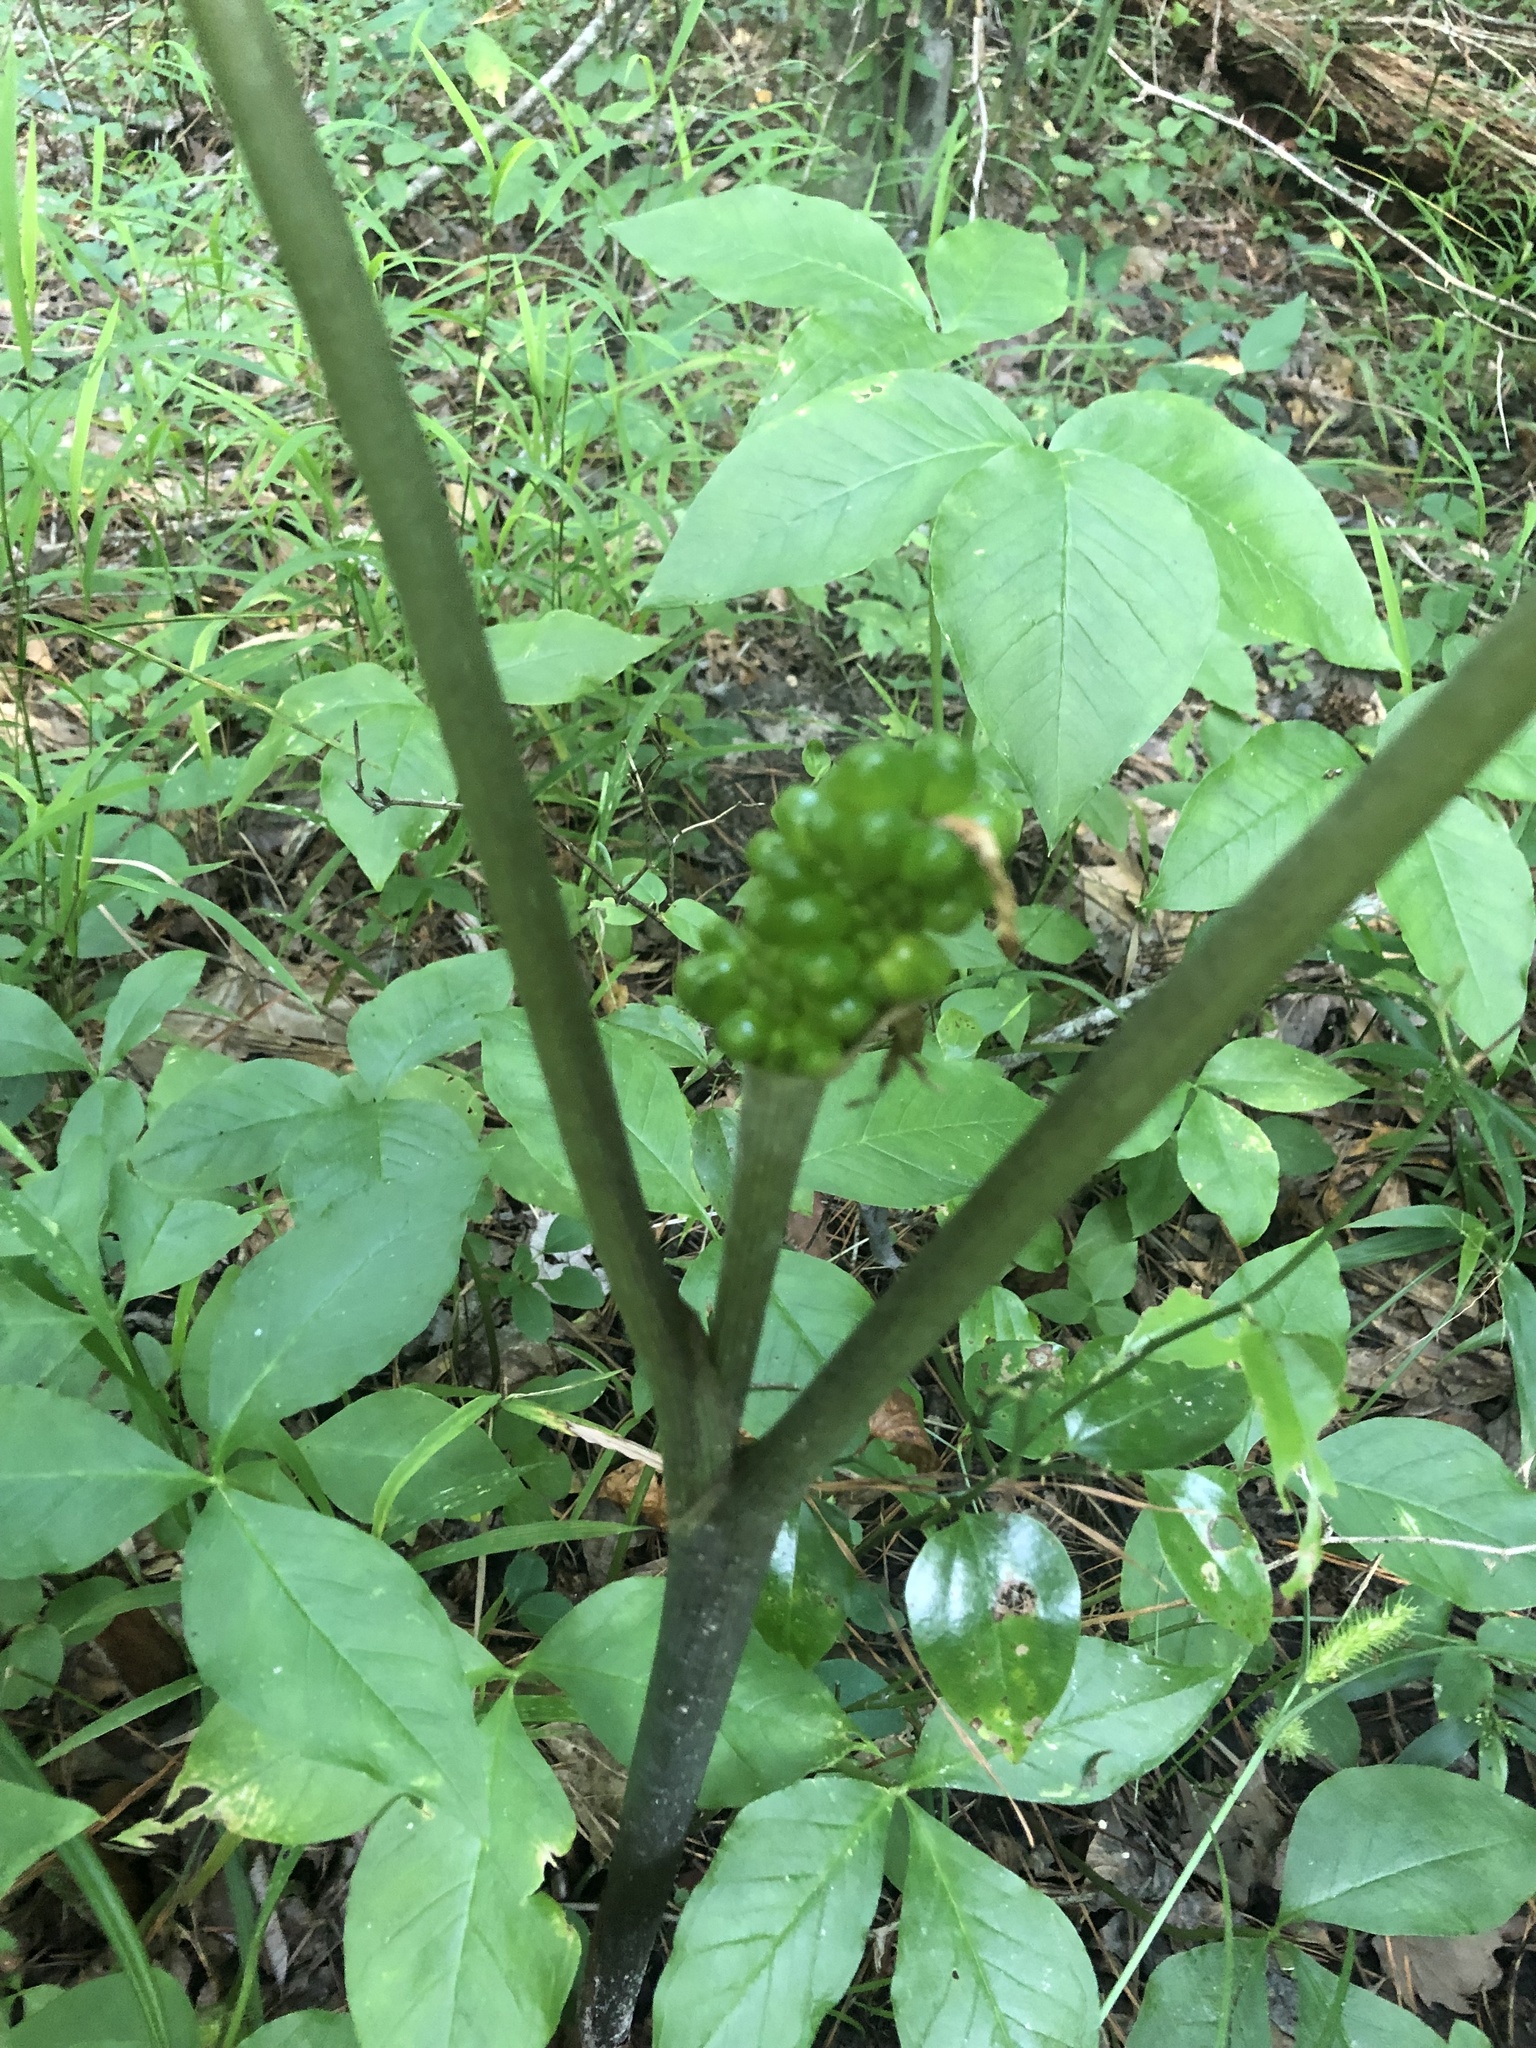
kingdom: Plantae
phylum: Tracheophyta
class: Liliopsida
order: Alismatales
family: Araceae
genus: Arisaema
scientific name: Arisaema triphyllum
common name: Jack-in-the-pulpit
